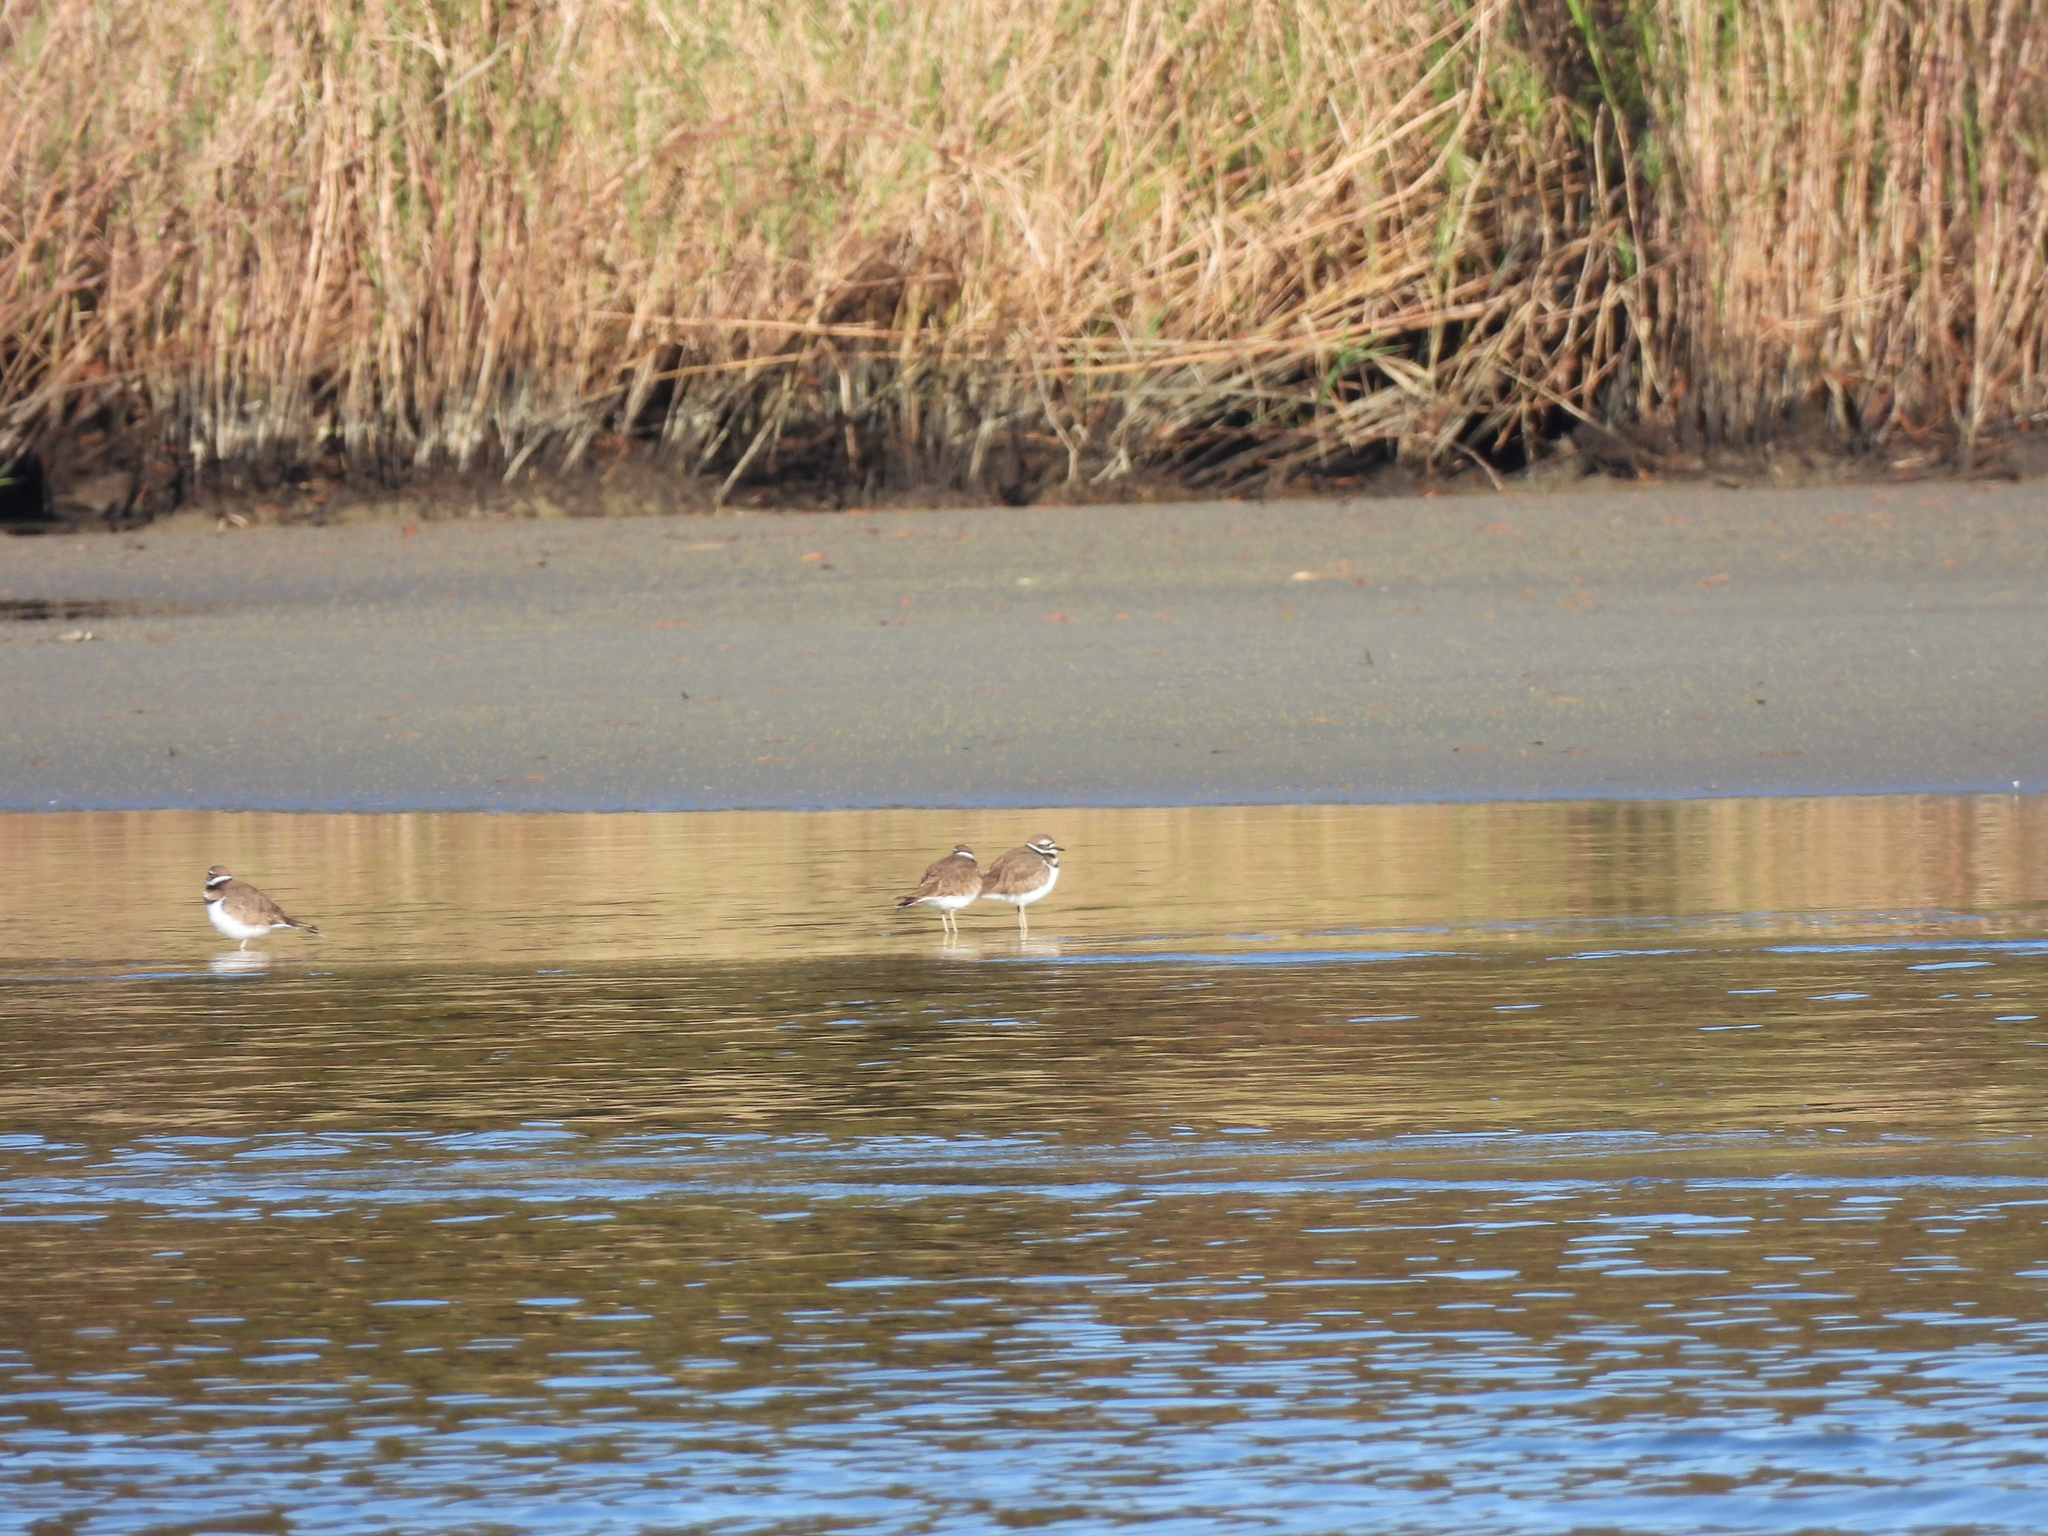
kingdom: Animalia
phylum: Chordata
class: Aves
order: Charadriiformes
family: Charadriidae
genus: Charadrius
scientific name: Charadrius vociferus
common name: Killdeer
